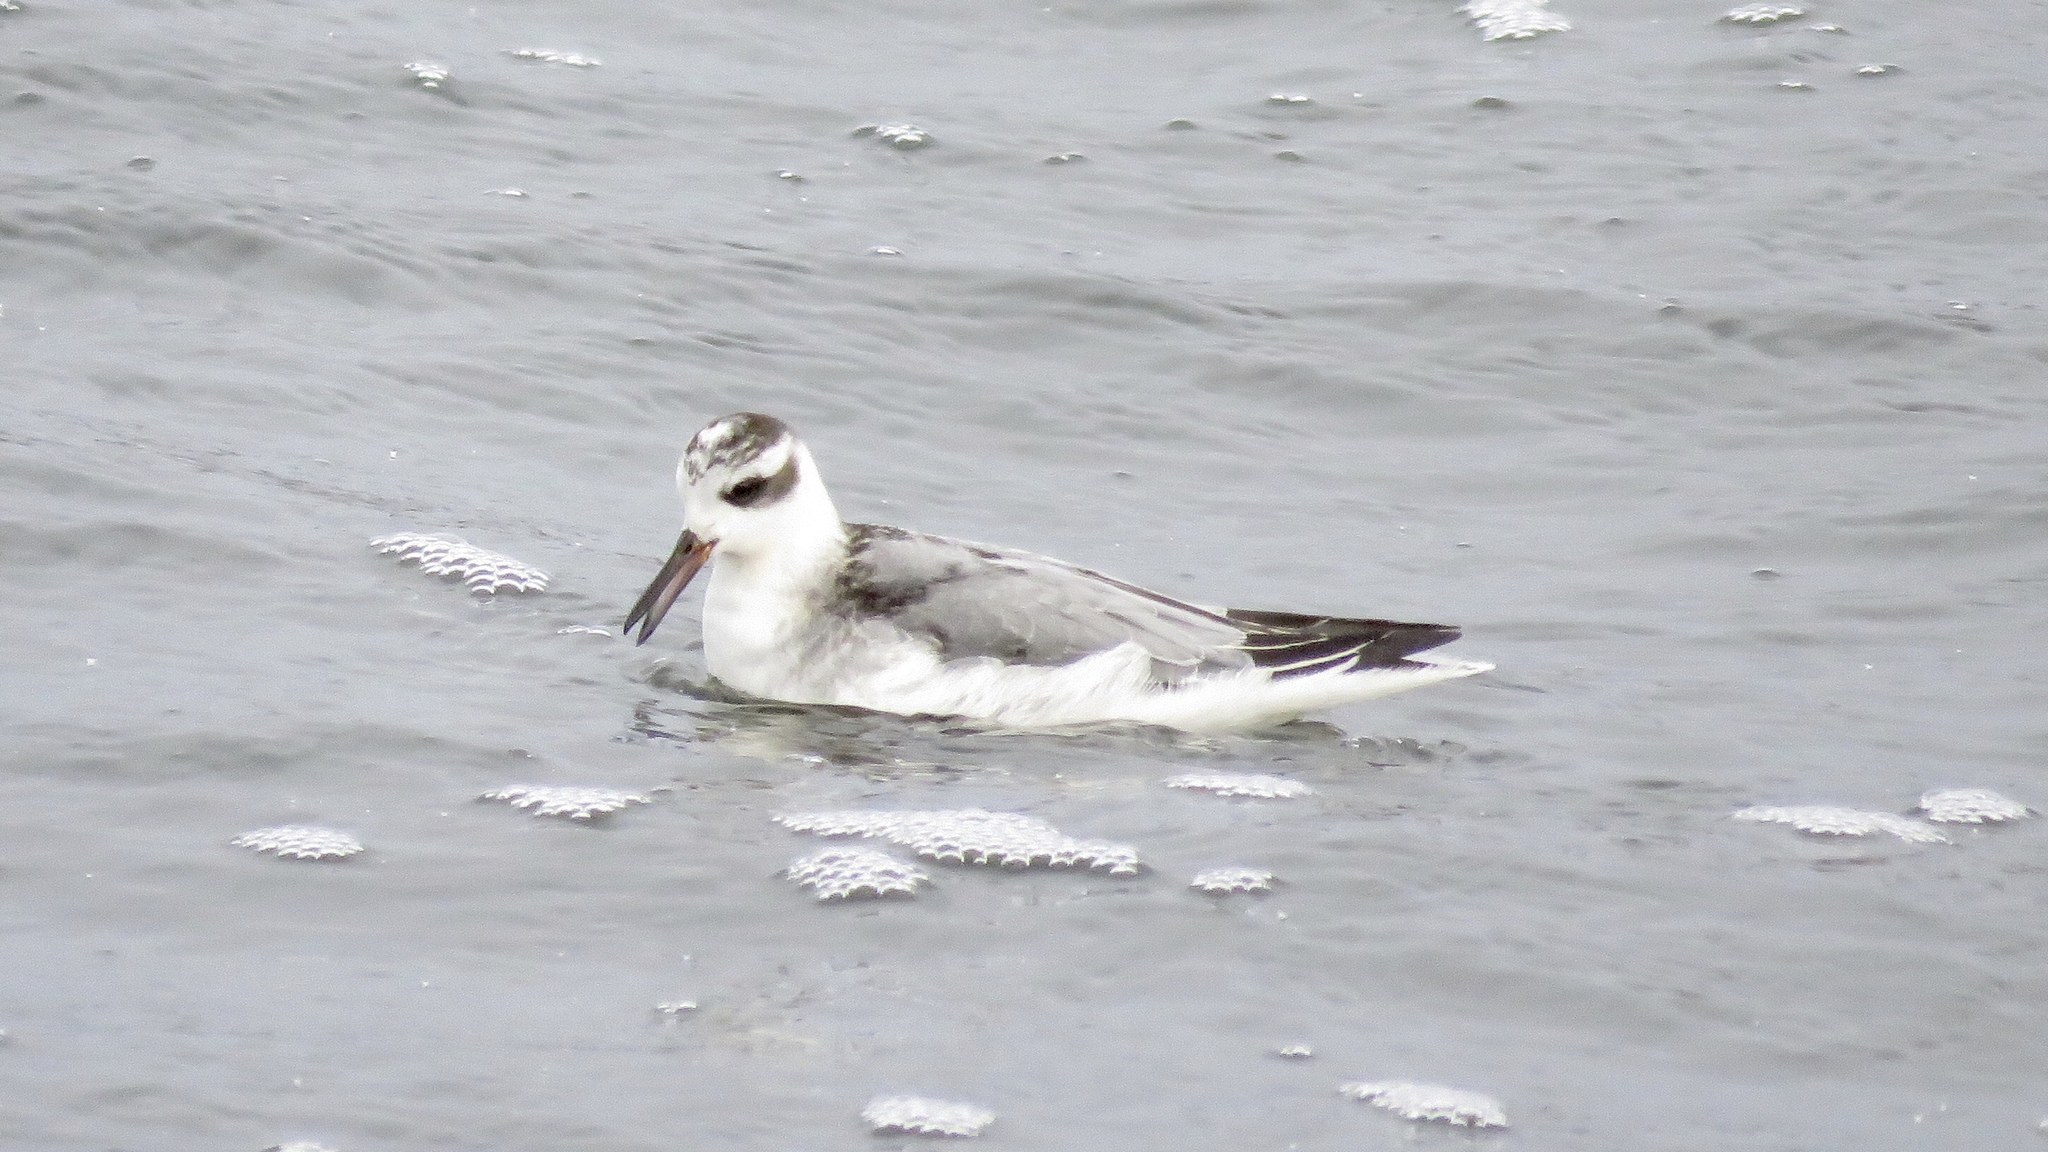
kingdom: Animalia
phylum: Chordata
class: Aves
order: Charadriiformes
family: Scolopacidae
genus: Phalaropus
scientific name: Phalaropus fulicarius
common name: Red phalarope
